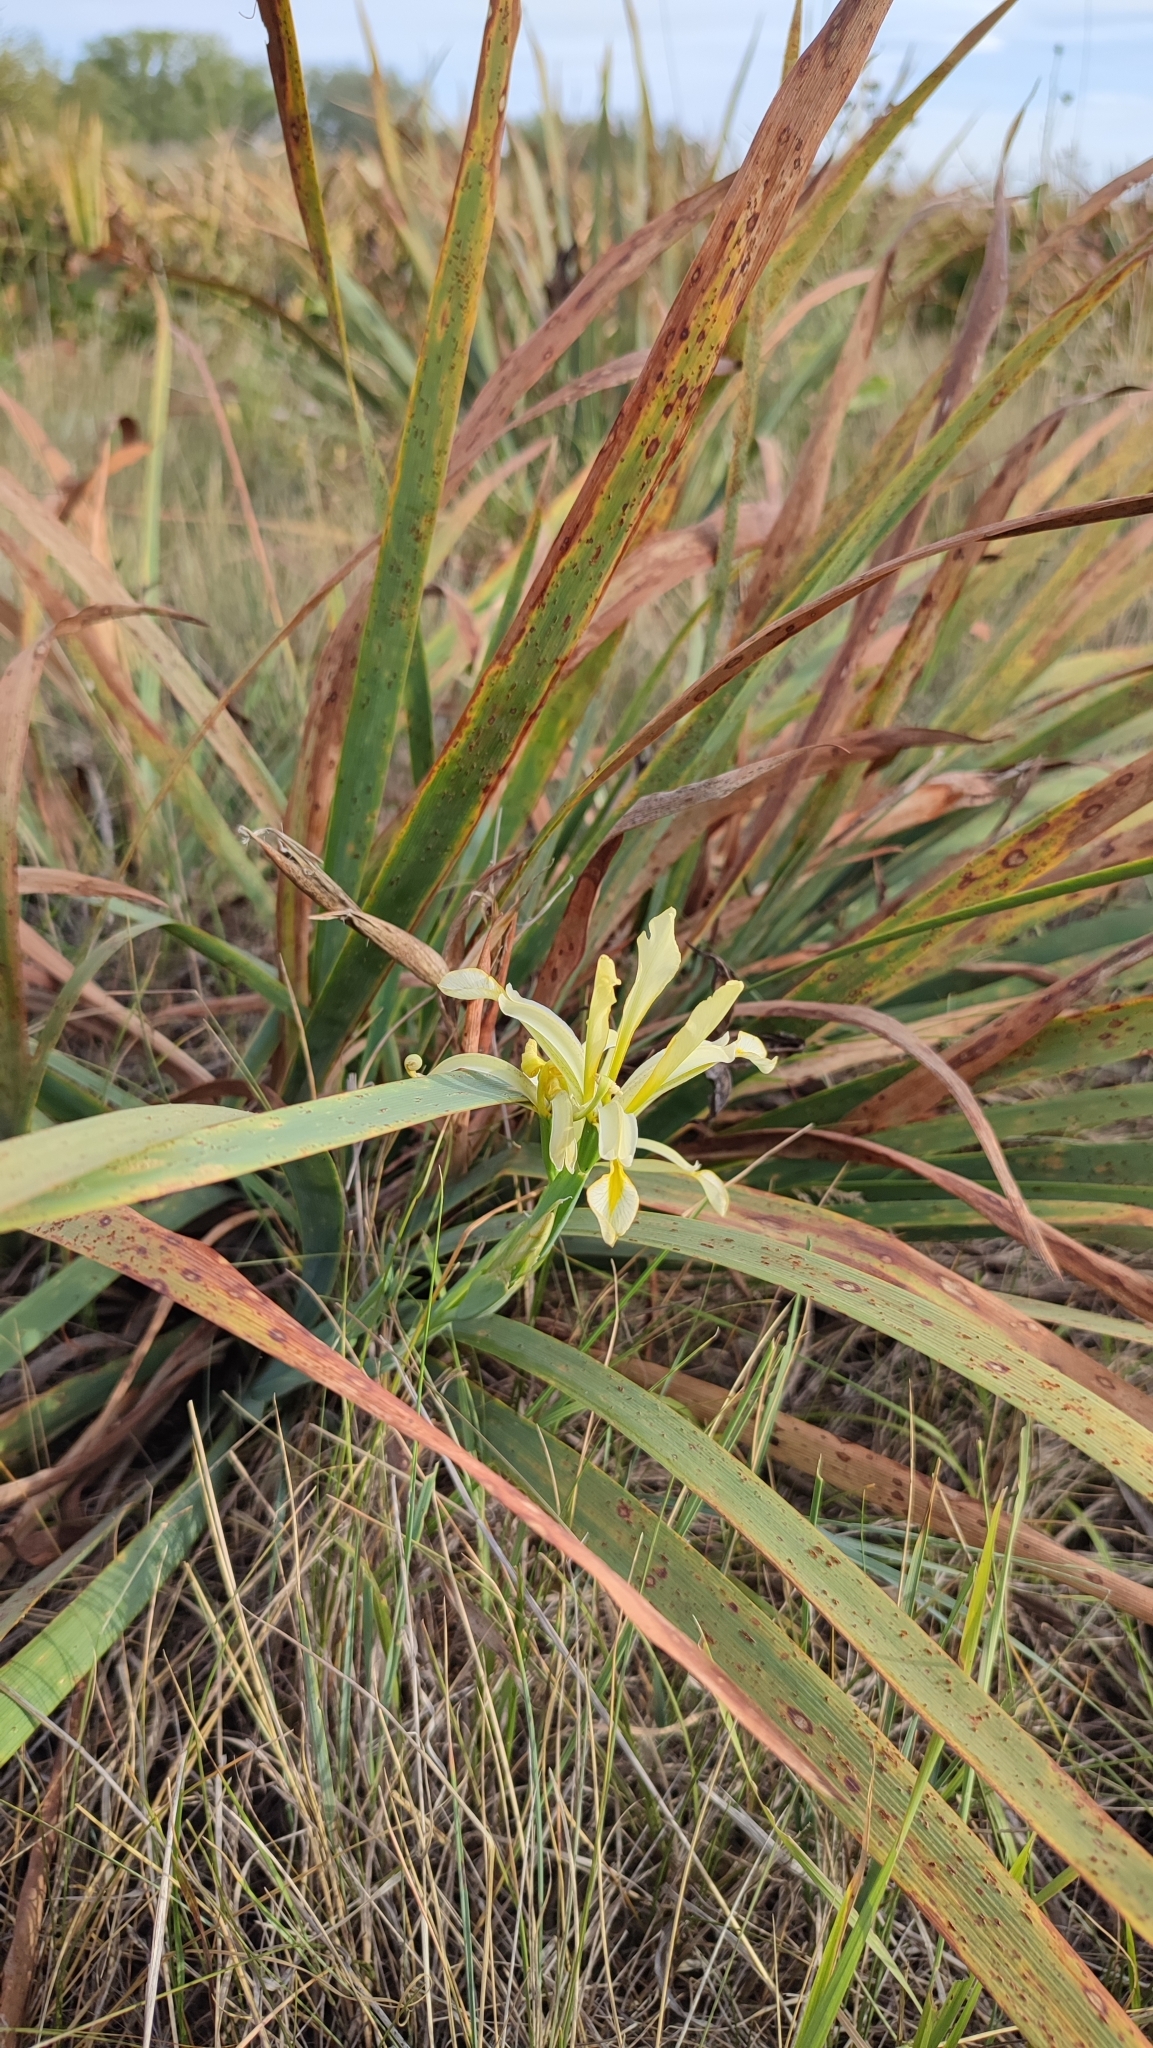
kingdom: Plantae
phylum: Tracheophyta
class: Liliopsida
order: Asparagales
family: Iridaceae
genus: Iris
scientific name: Iris halophila
